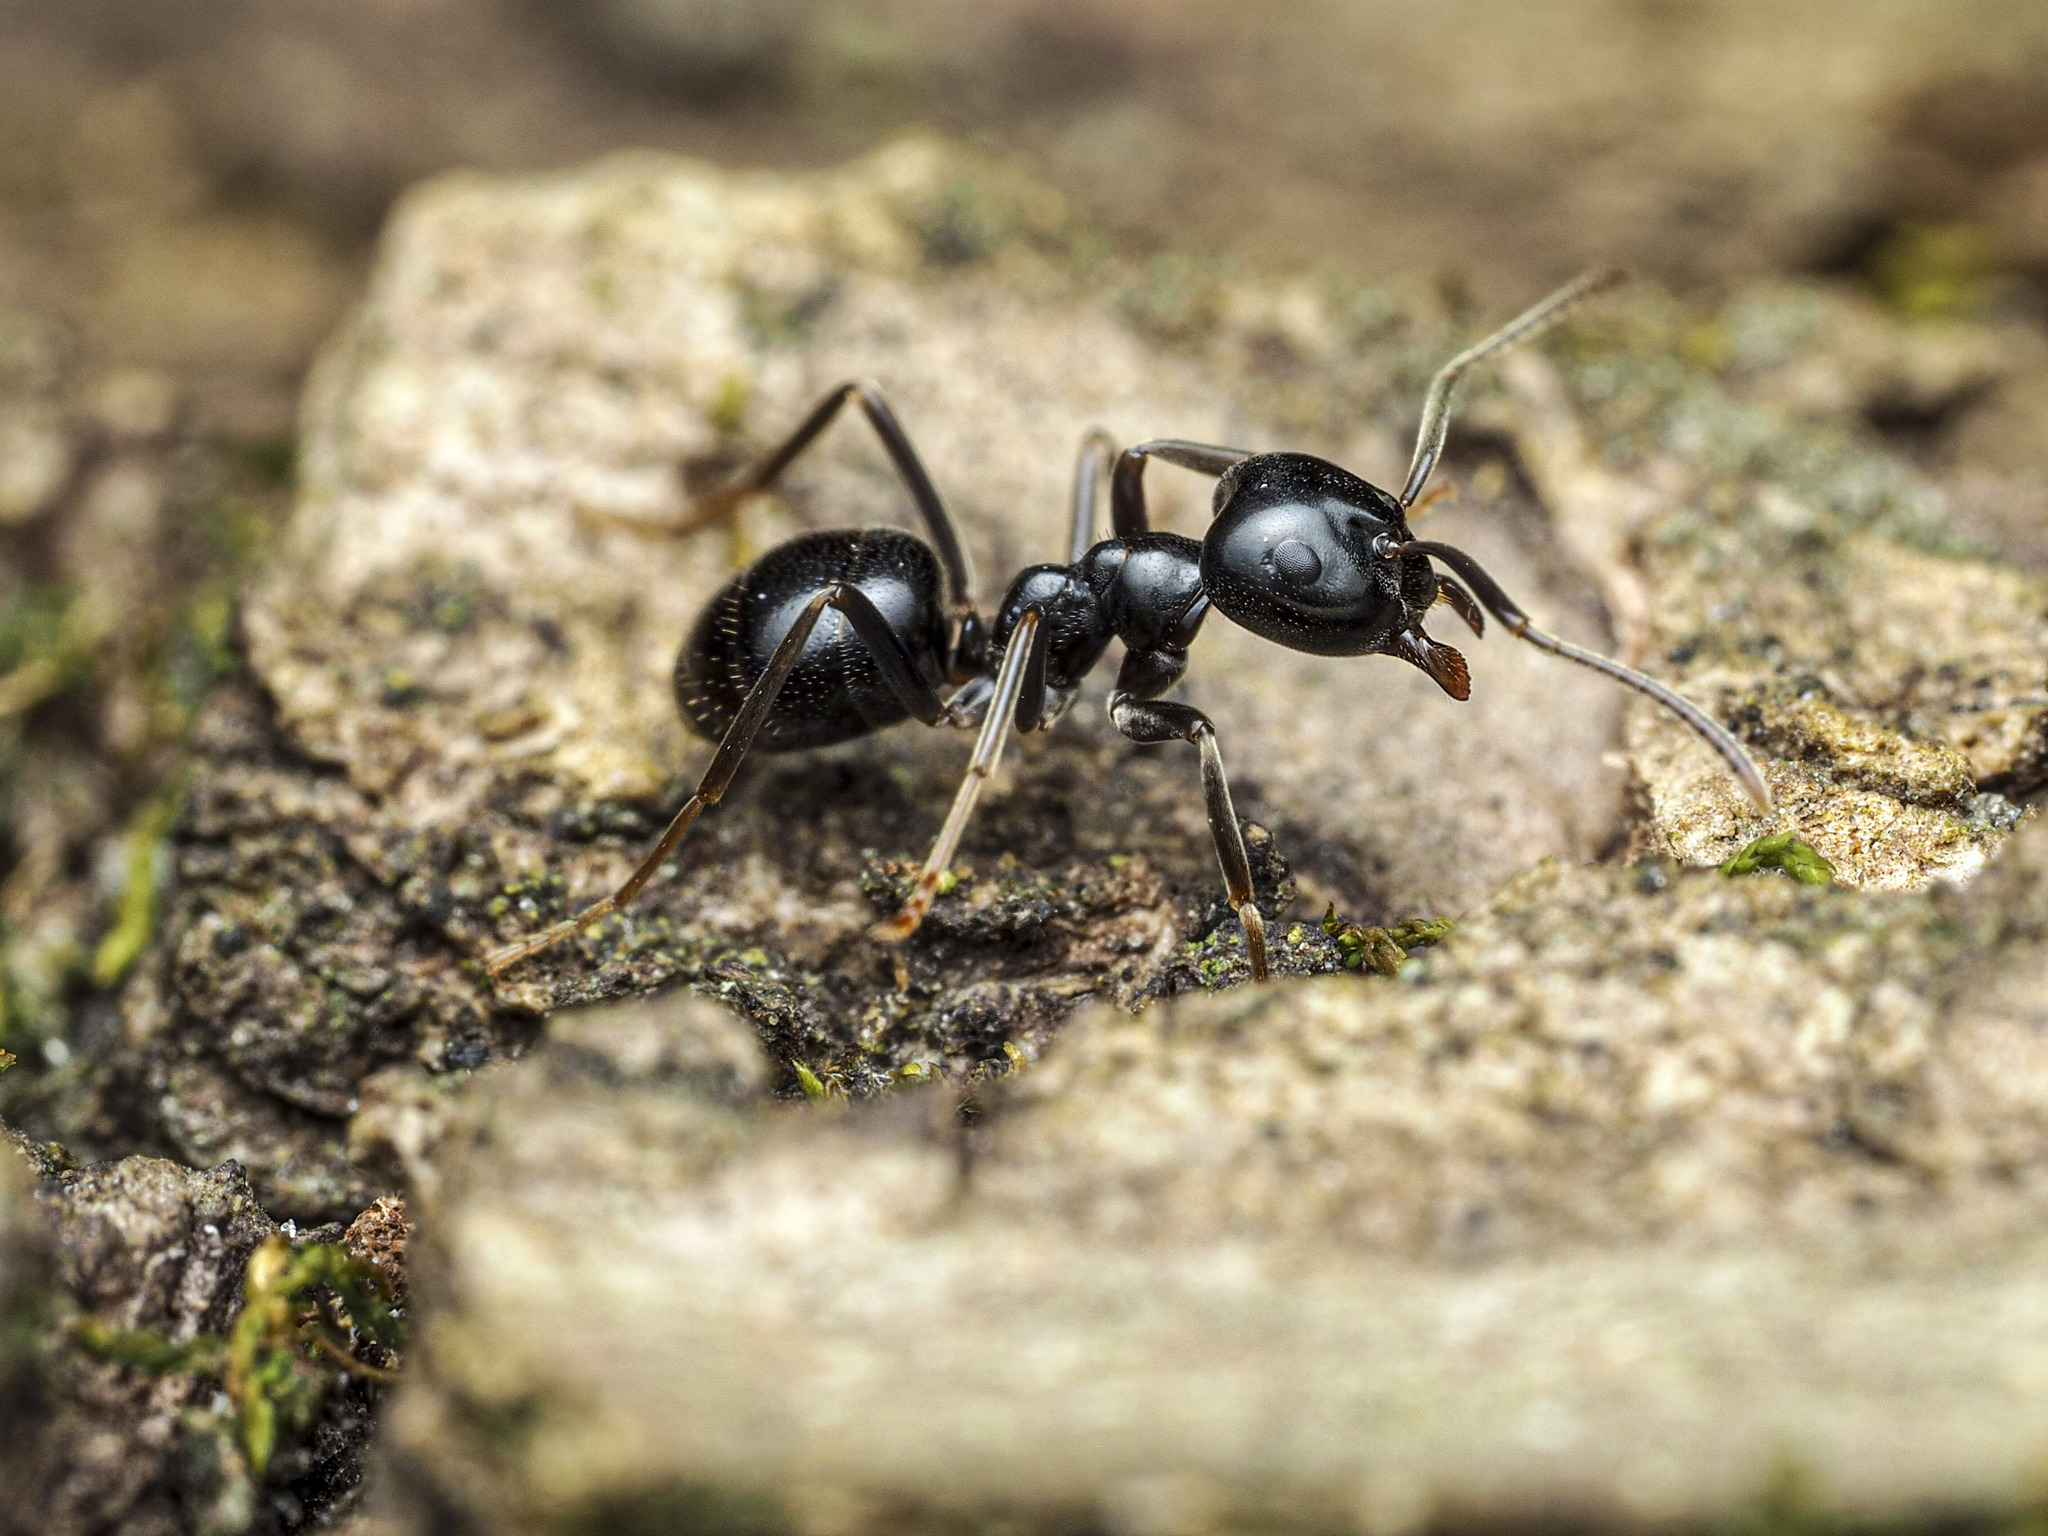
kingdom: Animalia
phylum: Arthropoda
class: Insecta
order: Hymenoptera
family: Formicidae
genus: Lasius
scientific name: Lasius fuliginosus
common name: Jet ant
